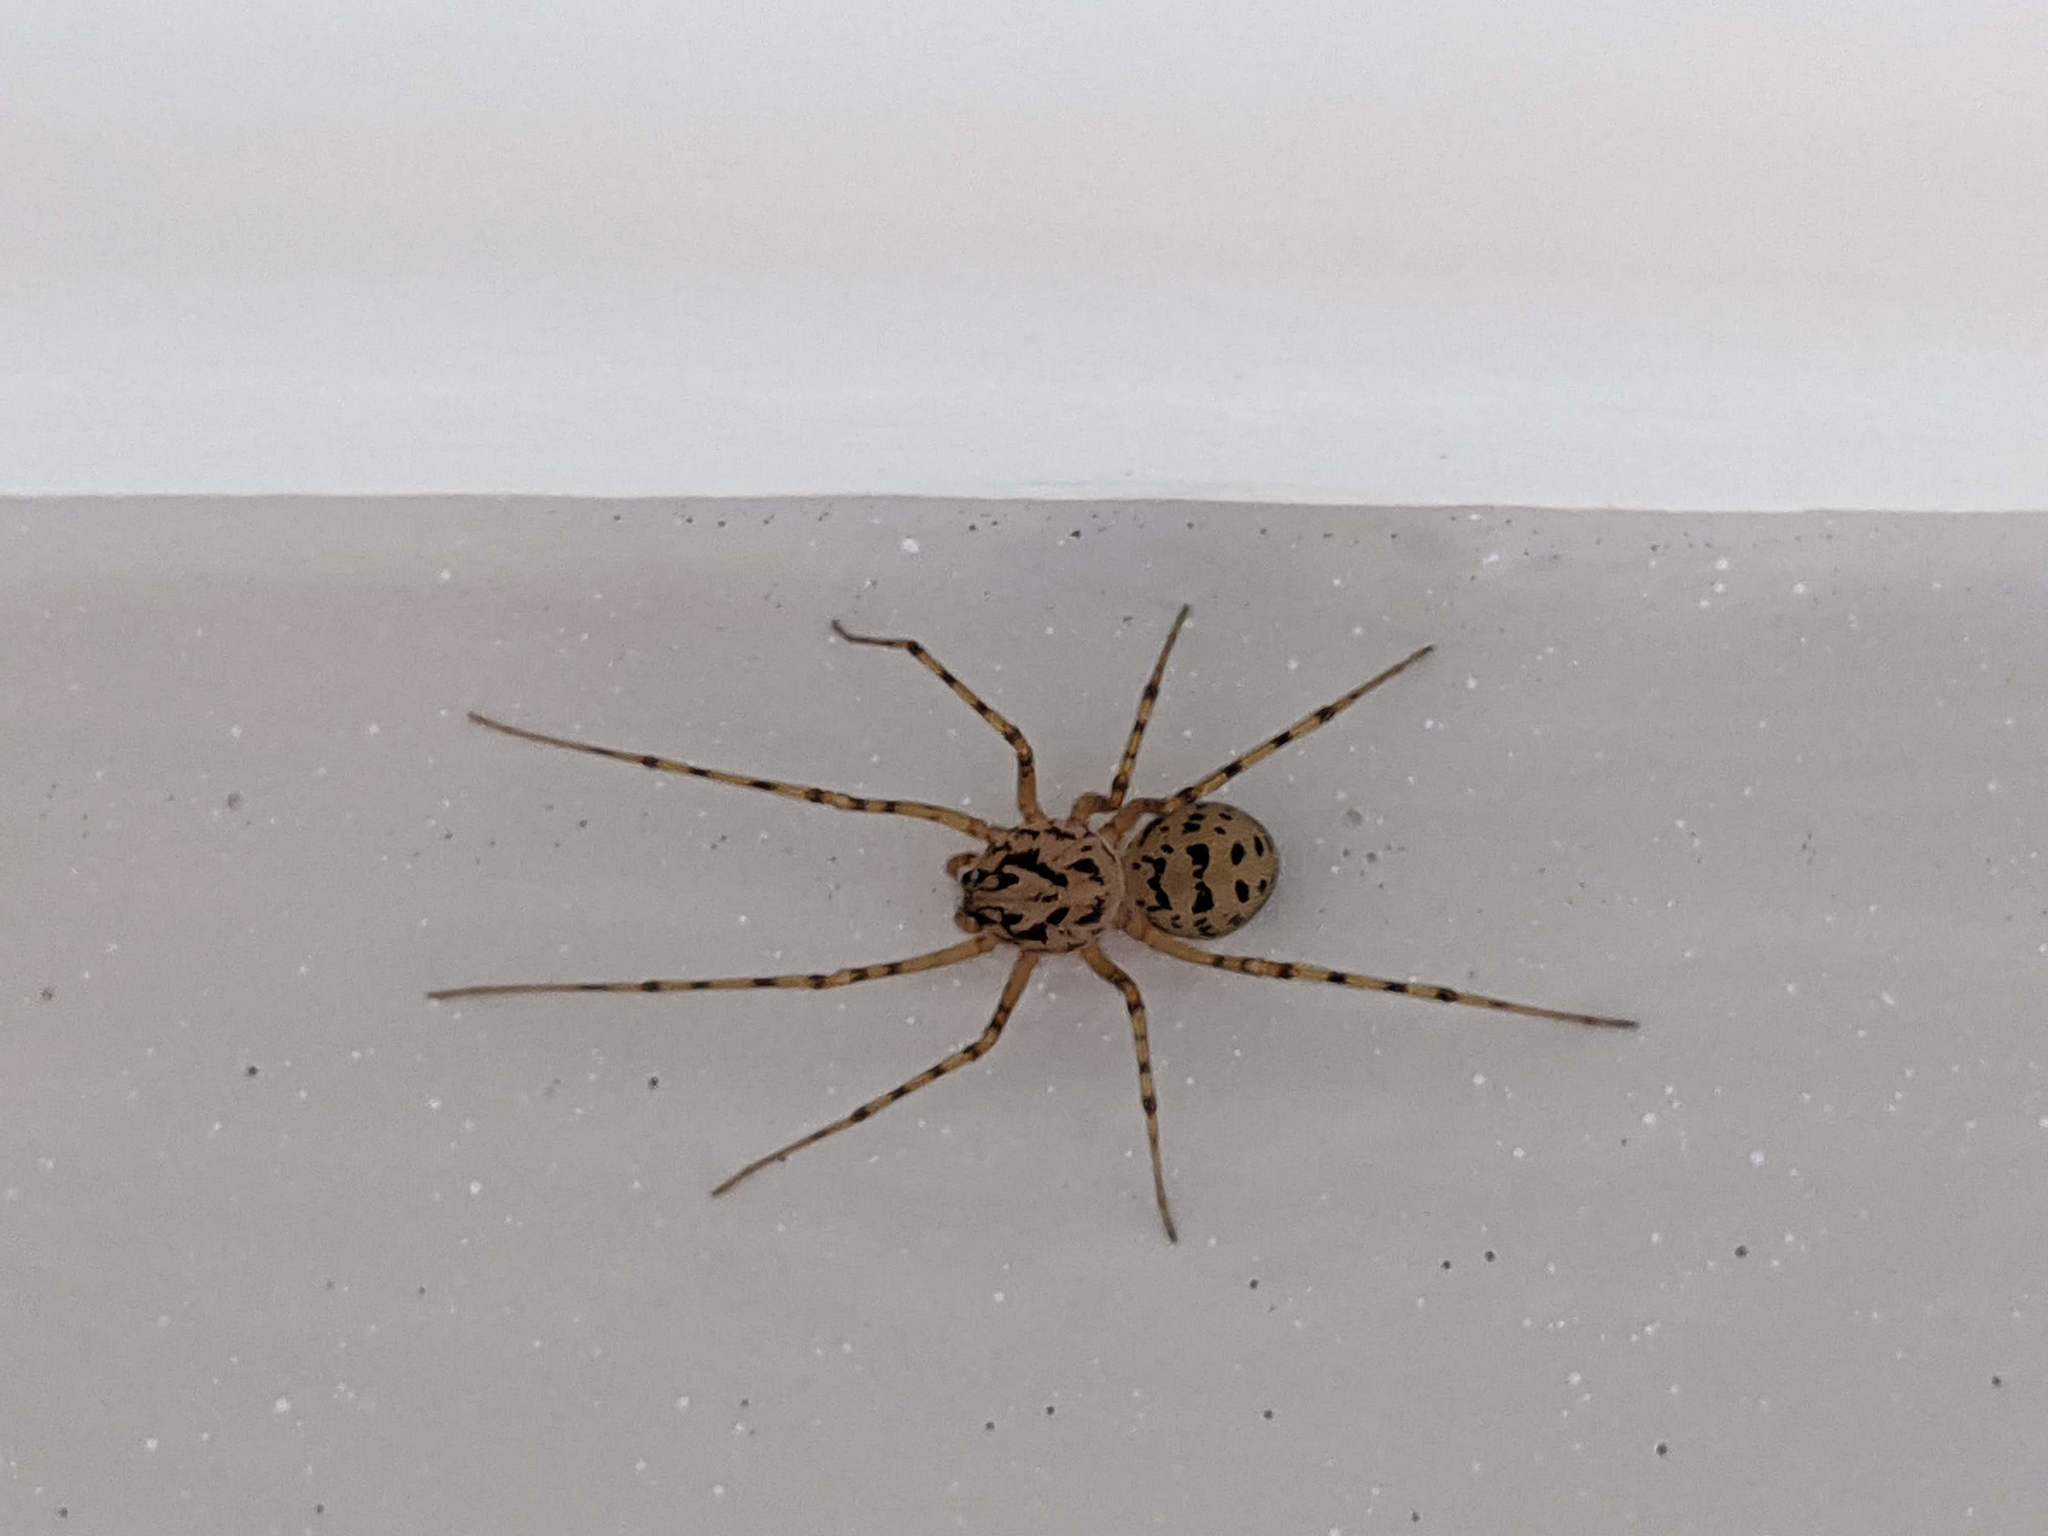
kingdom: Animalia
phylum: Arthropoda
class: Arachnida
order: Araneae
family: Scytodidae
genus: Scytodes
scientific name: Scytodes thoracica
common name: Spitting spider
